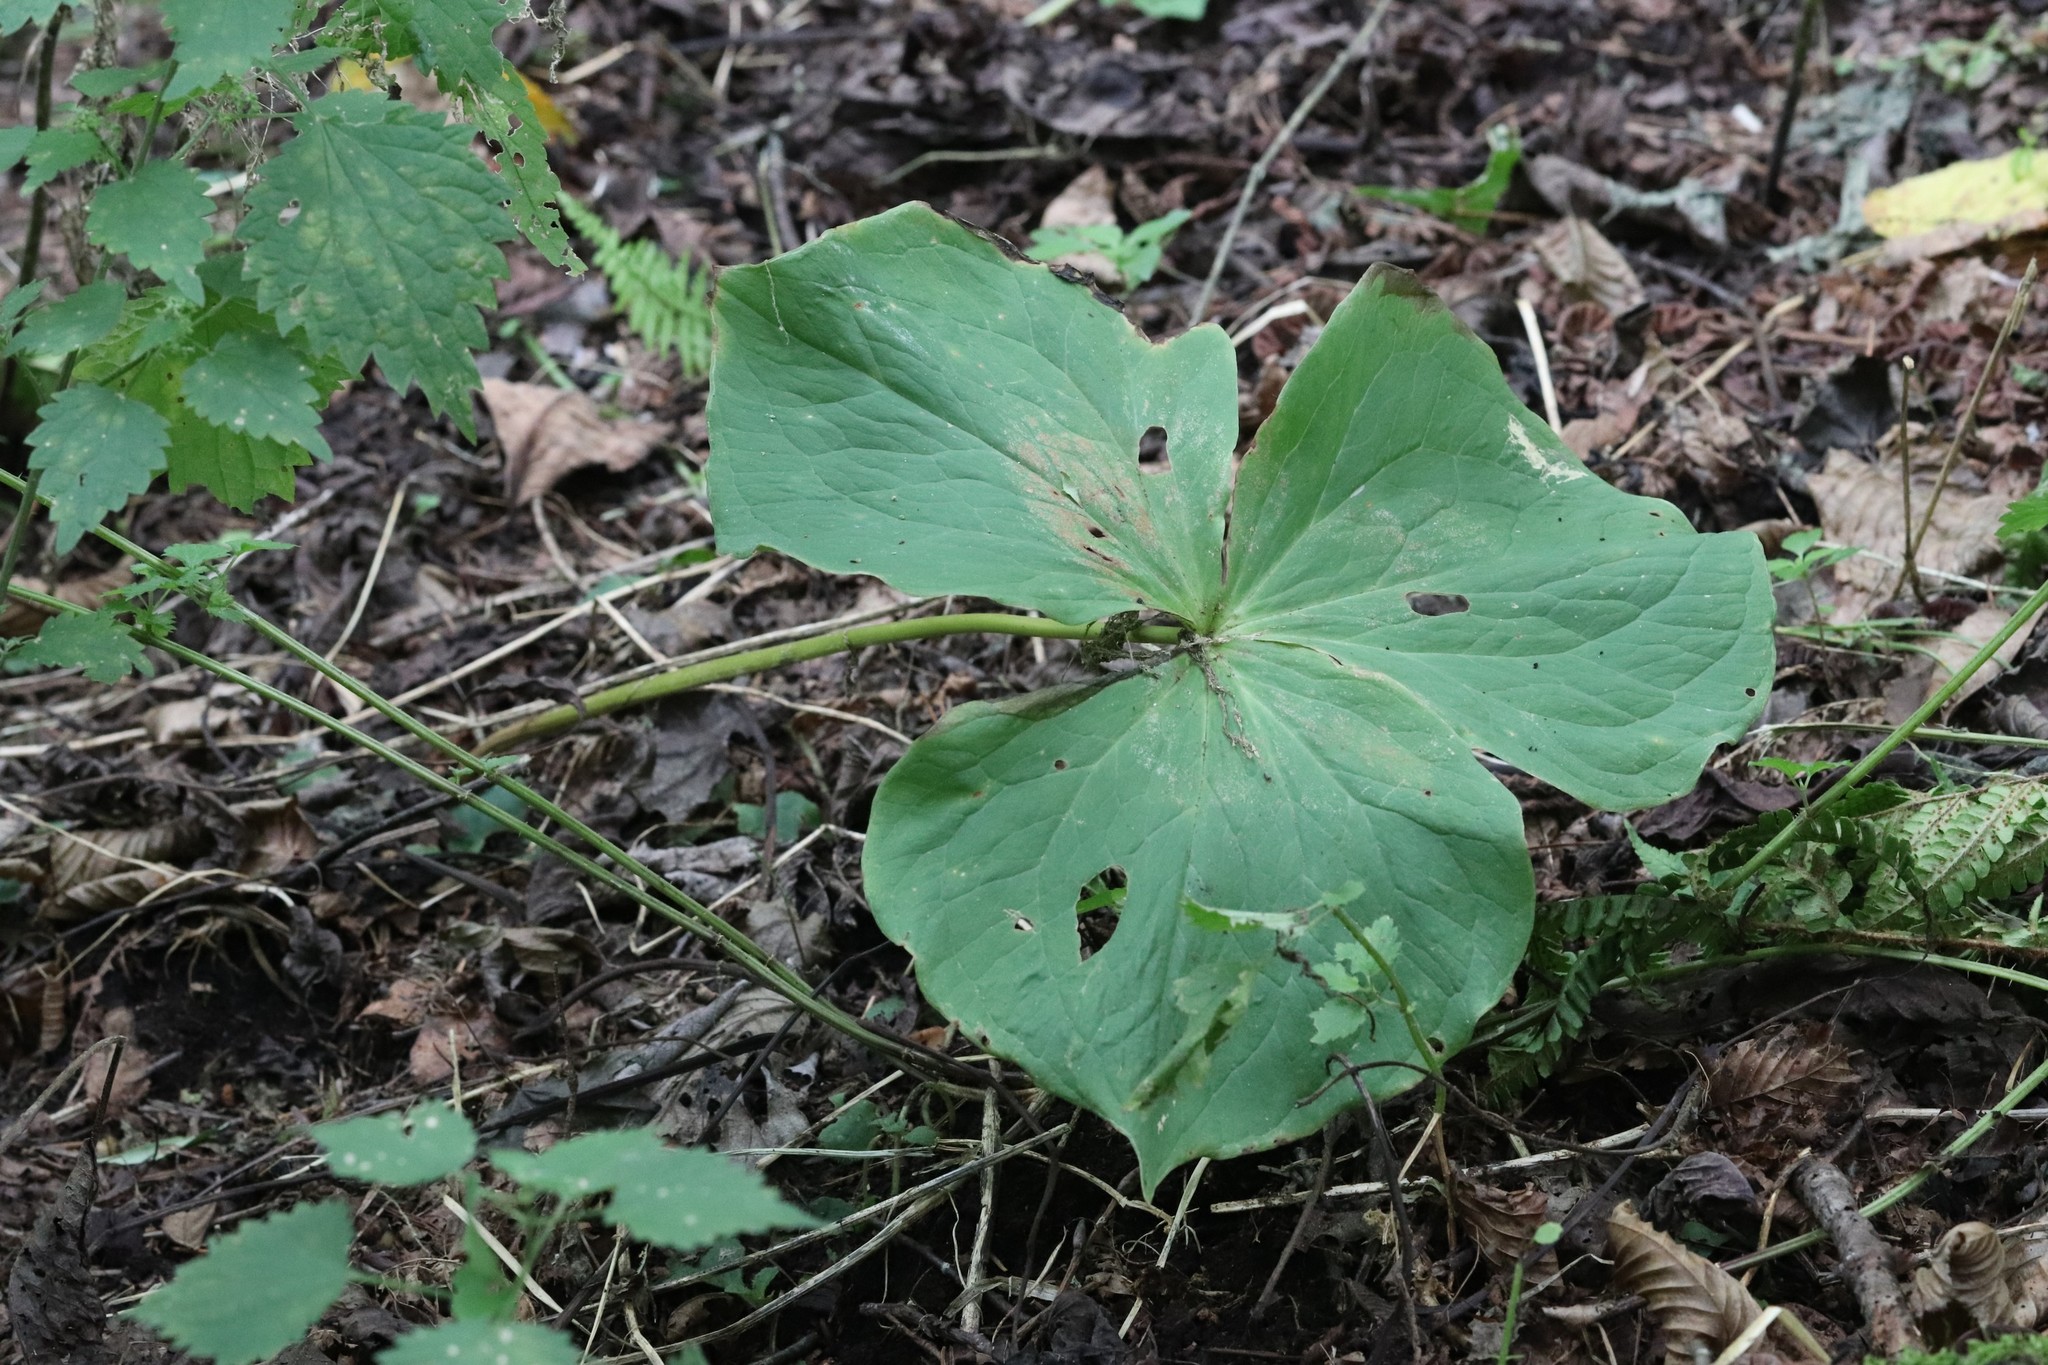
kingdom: Plantae
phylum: Tracheophyta
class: Liliopsida
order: Liliales
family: Melanthiaceae
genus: Trillium
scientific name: Trillium komarovii
